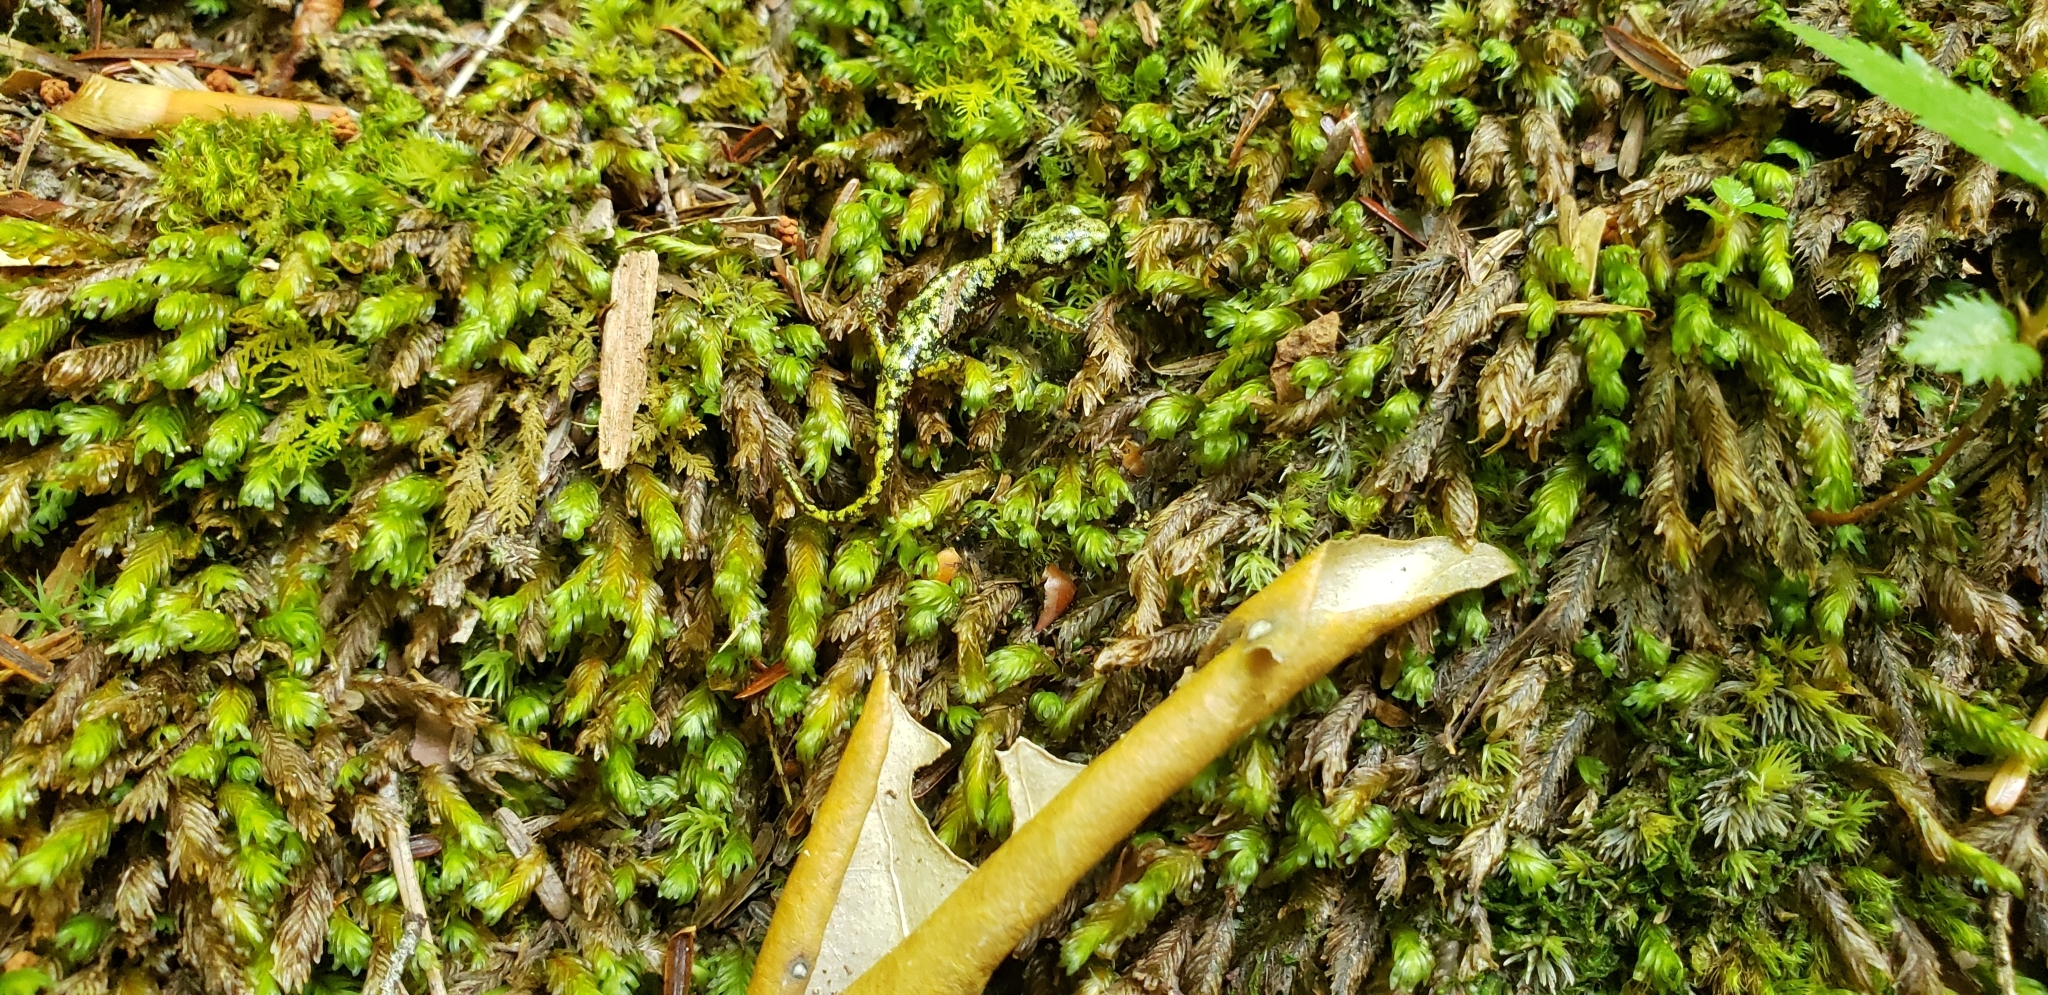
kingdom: Animalia
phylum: Chordata
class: Amphibia
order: Caudata
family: Plethodontidae
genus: Aneides
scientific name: Aneides aeneus
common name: Green salamander
